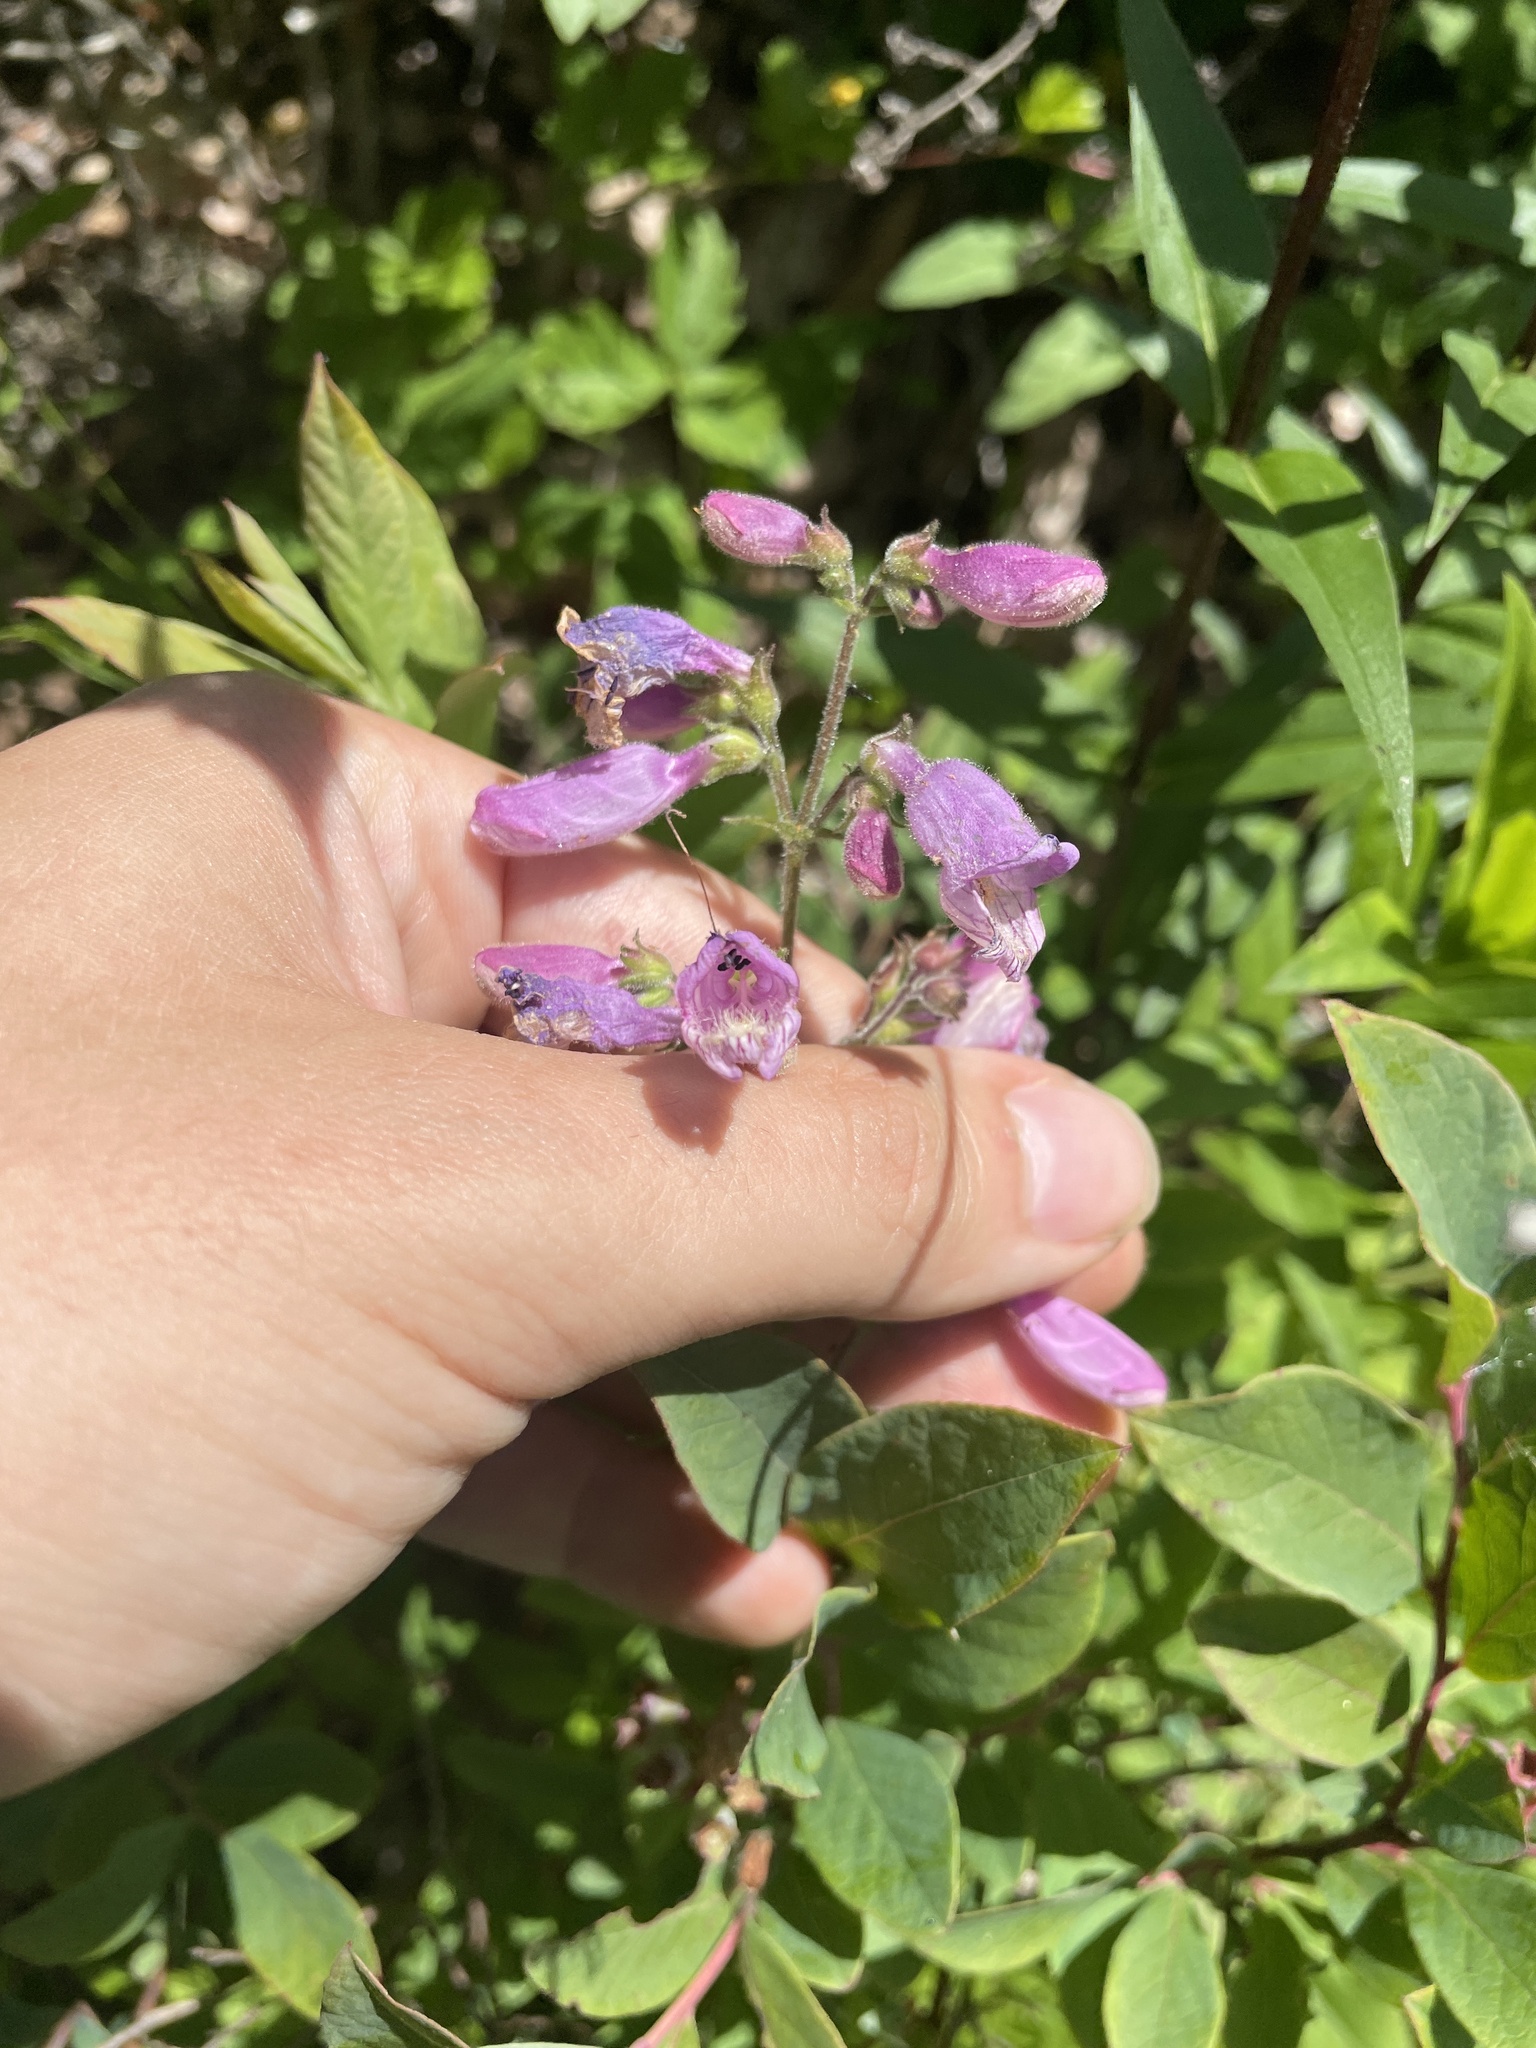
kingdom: Plantae
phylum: Tracheophyta
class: Magnoliopsida
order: Lamiales
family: Plantaginaceae
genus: Penstemon
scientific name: Penstemon smallii
